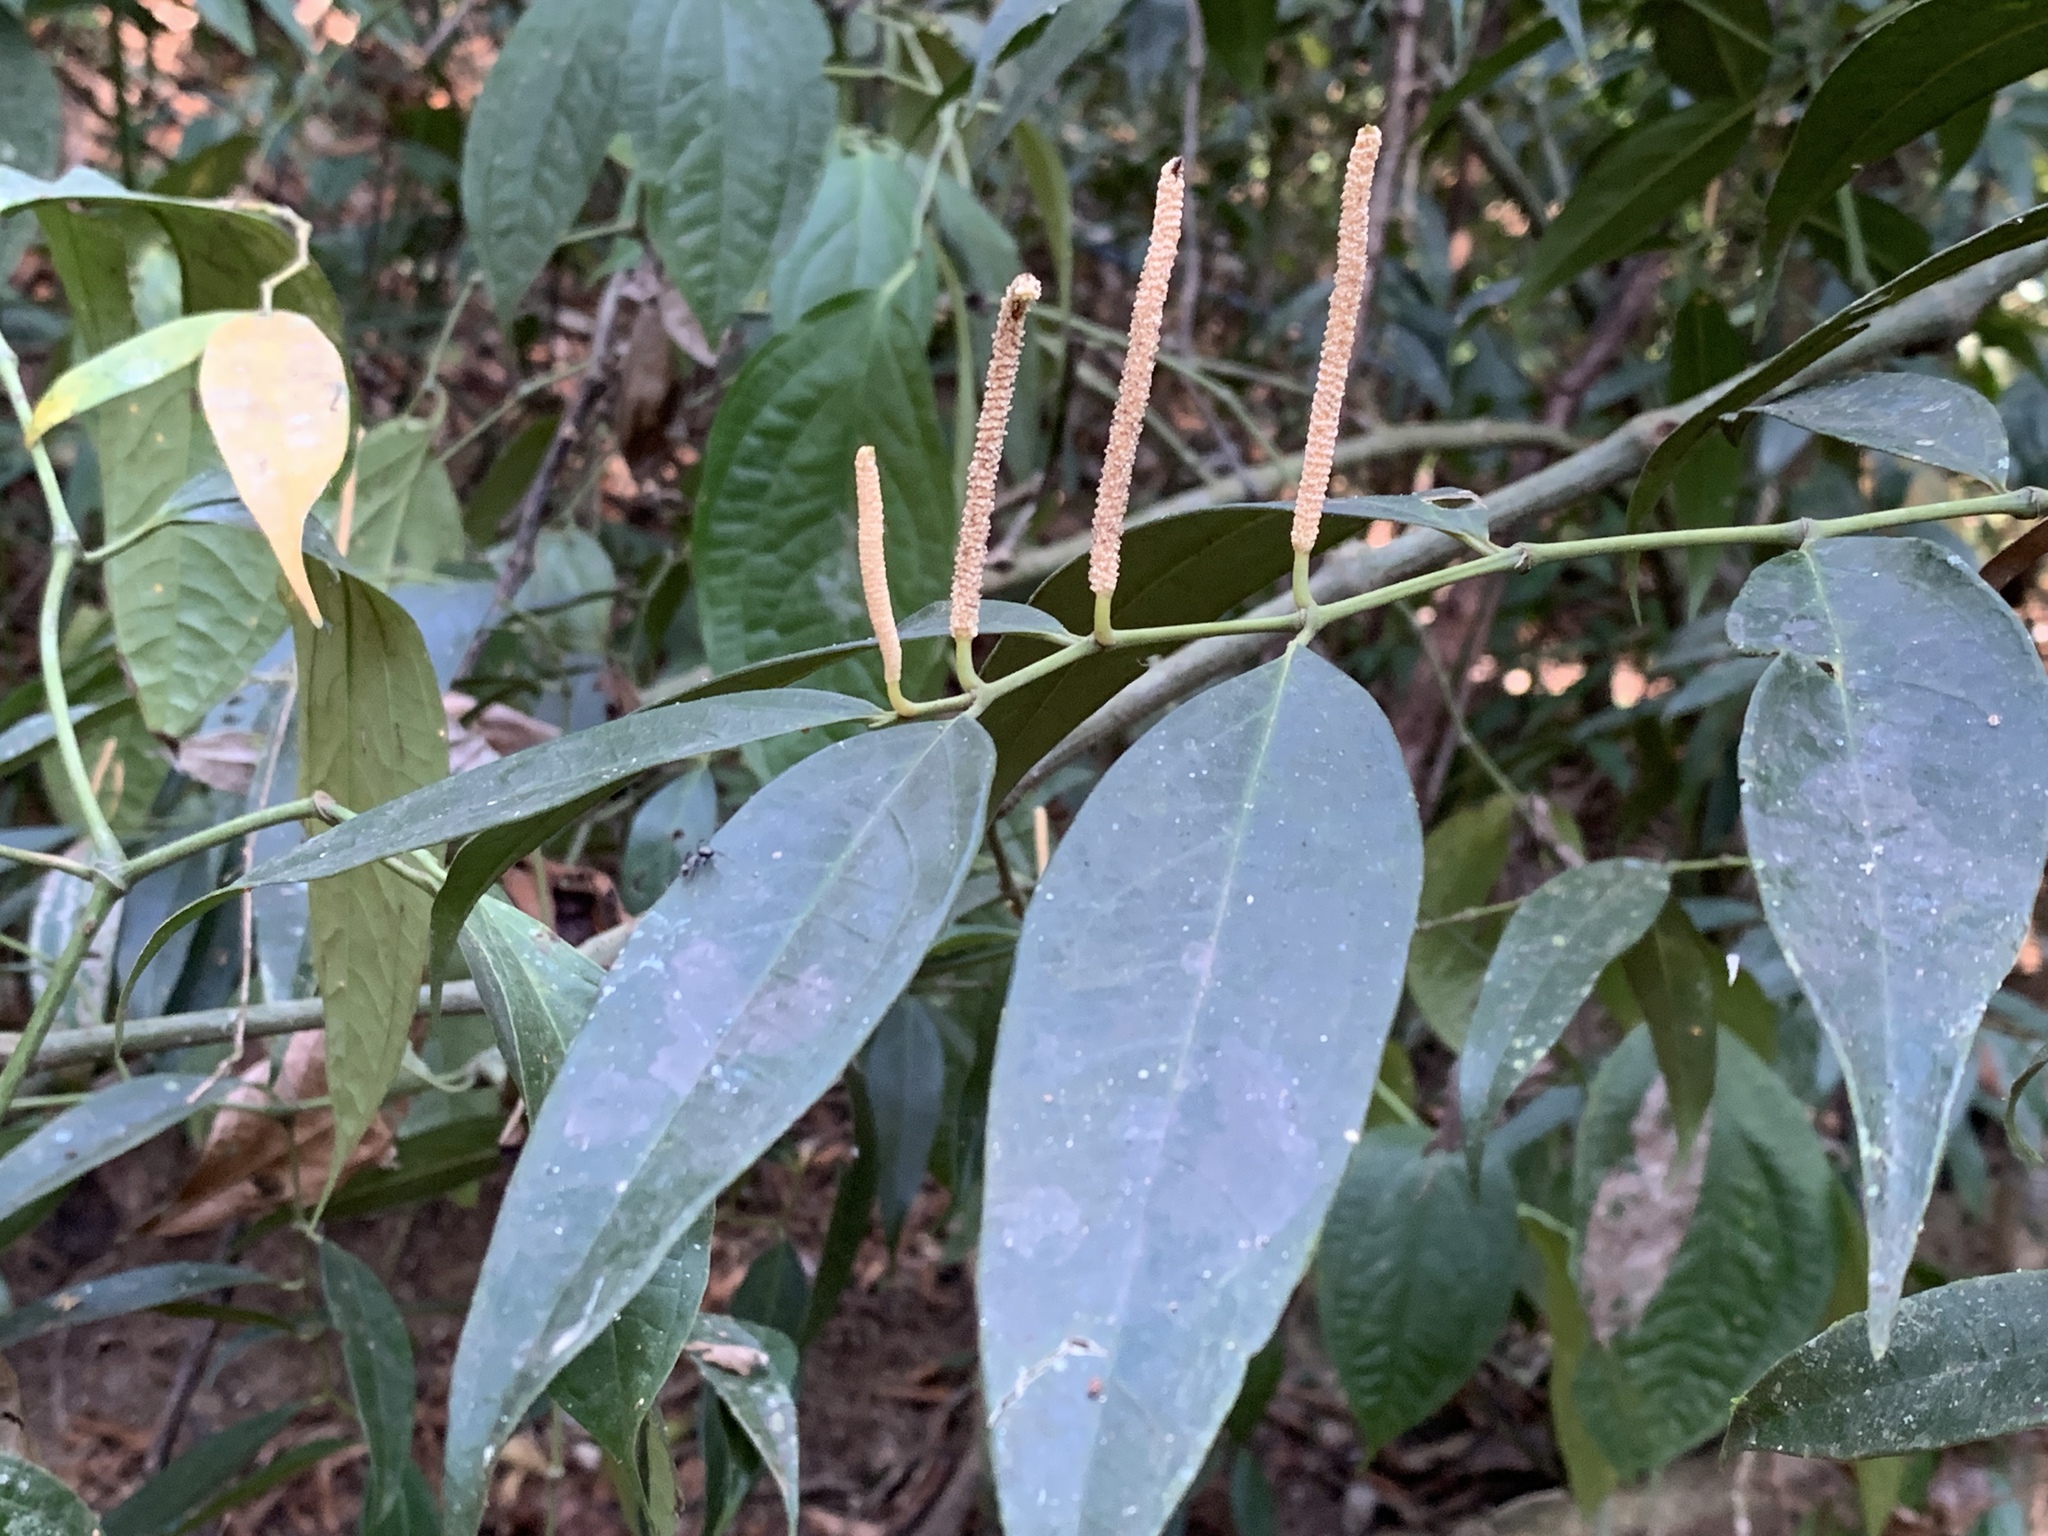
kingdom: Plantae
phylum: Tracheophyta
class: Magnoliopsida
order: Piperales
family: Piperaceae
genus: Piper
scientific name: Piper guanacostense
